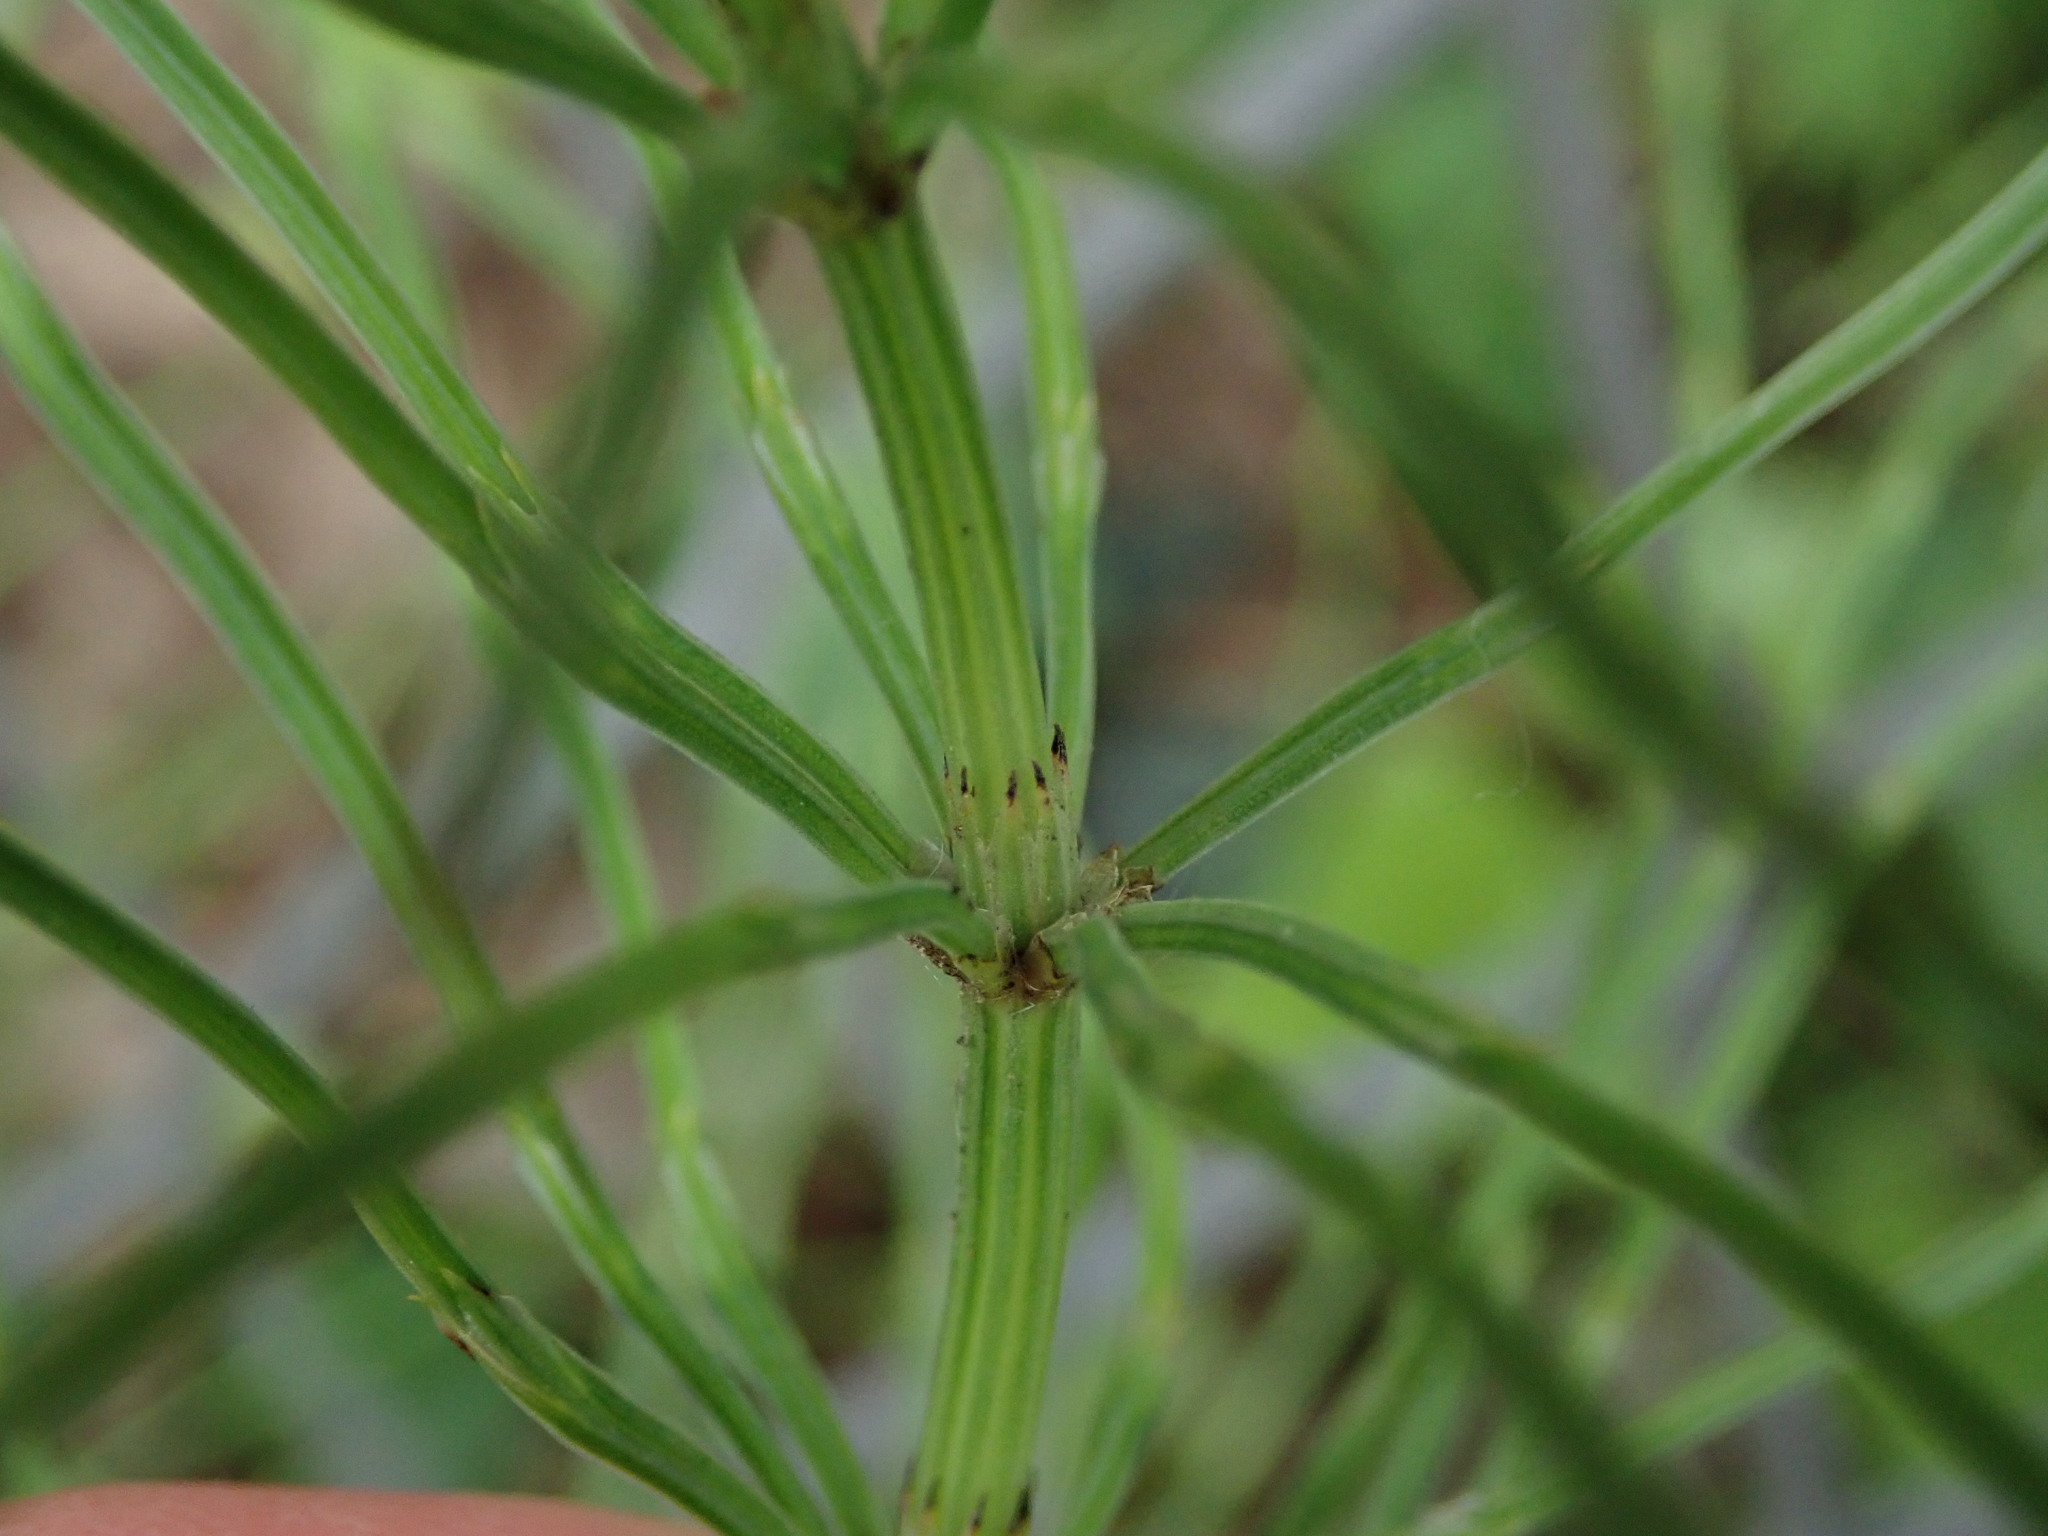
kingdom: Plantae
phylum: Tracheophyta
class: Polypodiopsida
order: Equisetales
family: Equisetaceae
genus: Equisetum
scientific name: Equisetum arvense
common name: Field horsetail
